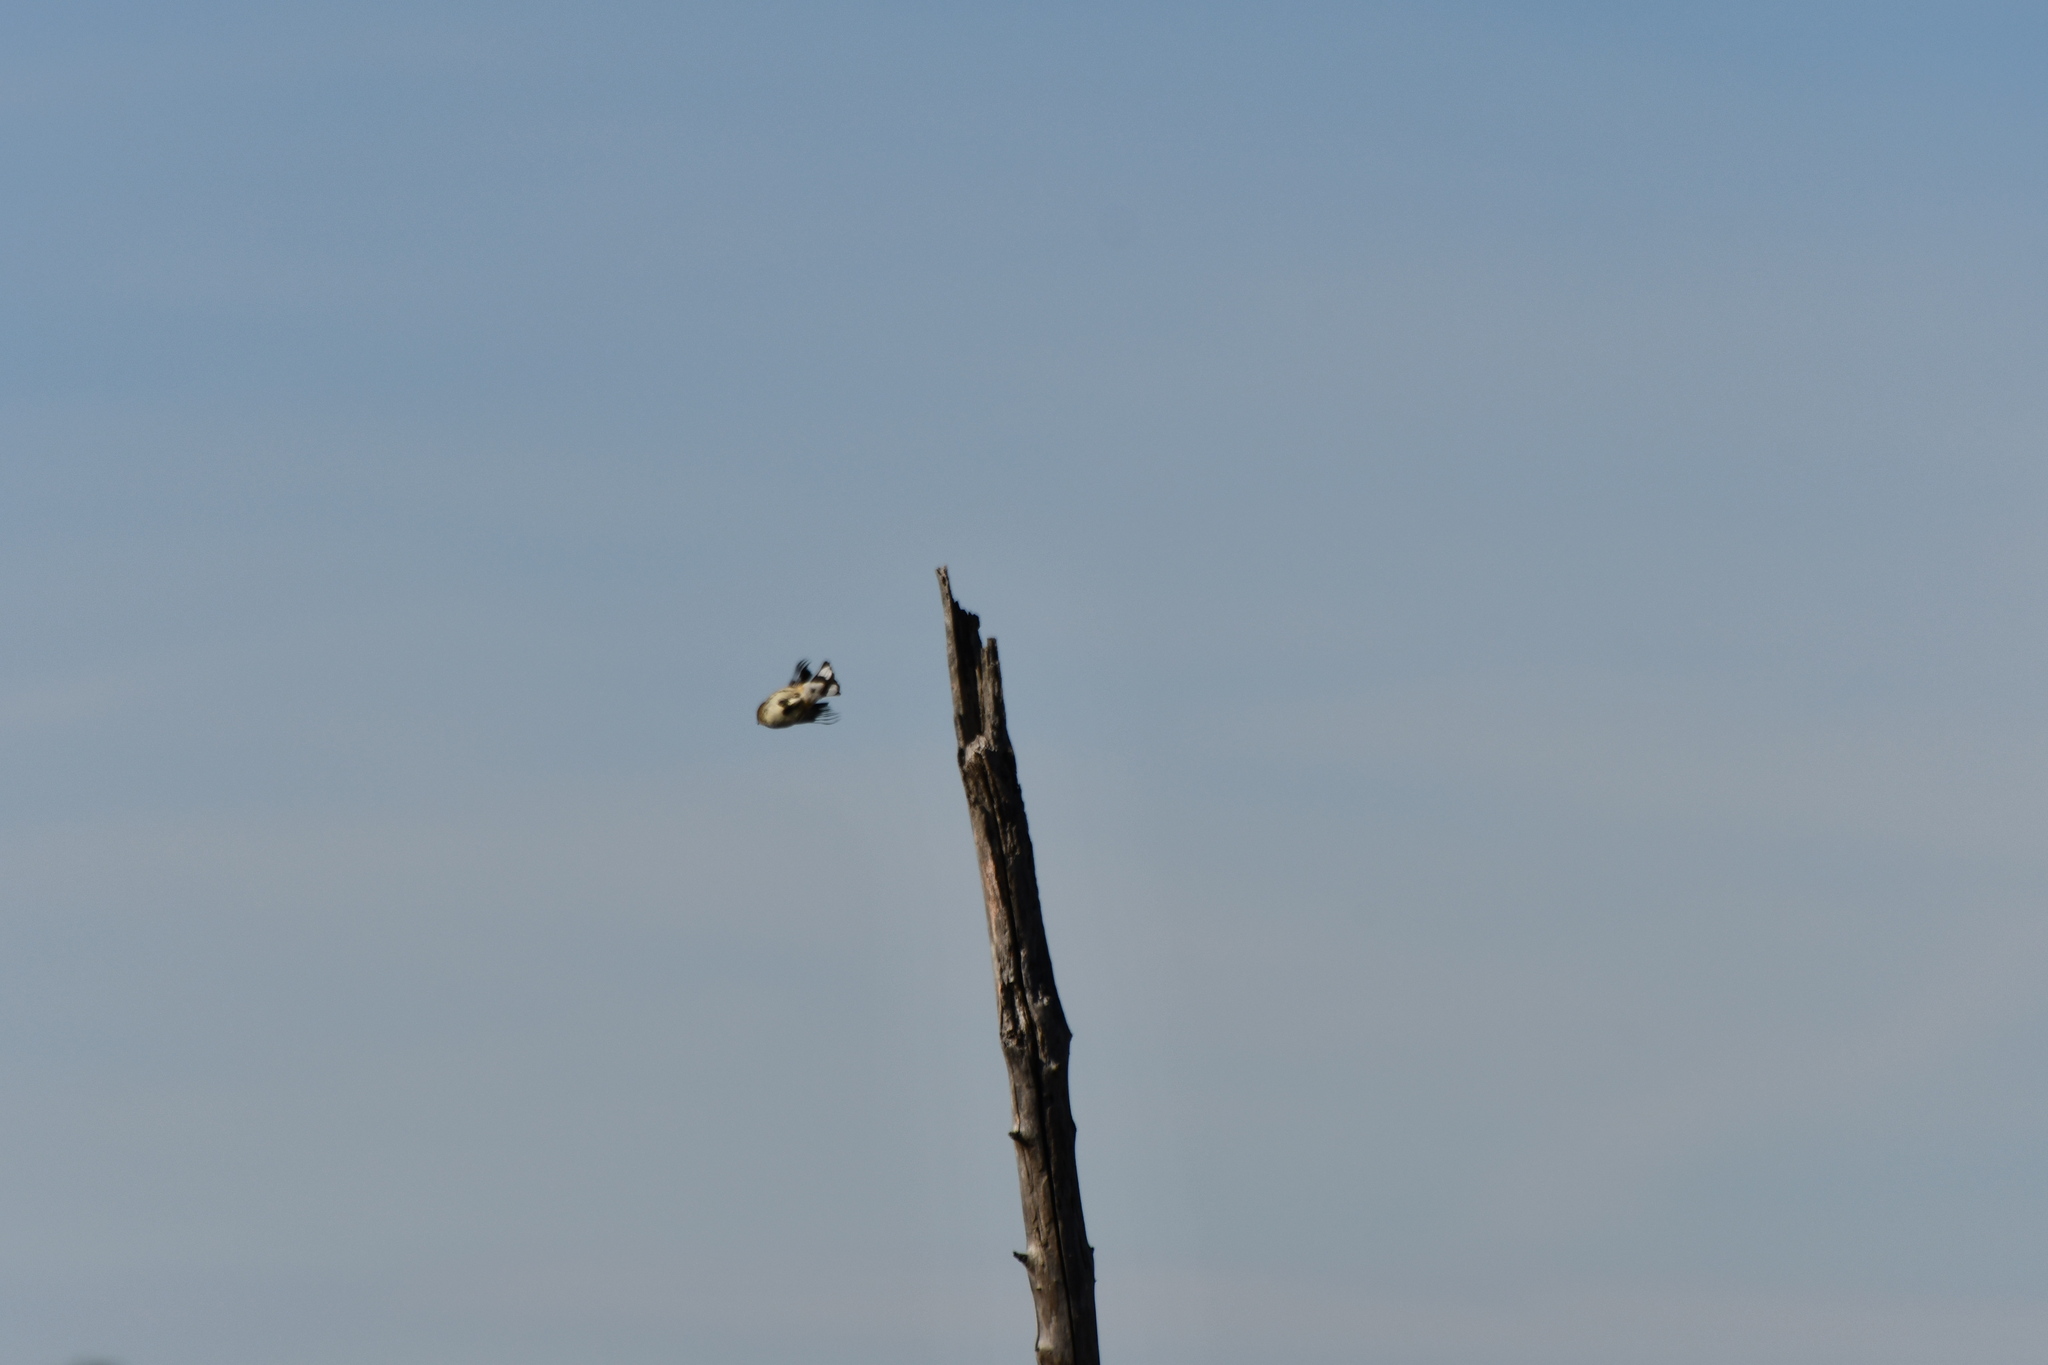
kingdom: Animalia
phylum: Chordata
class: Aves
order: Passeriformes
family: Parulidae
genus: Setophaga
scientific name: Setophaga coronata
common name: Myrtle warbler
